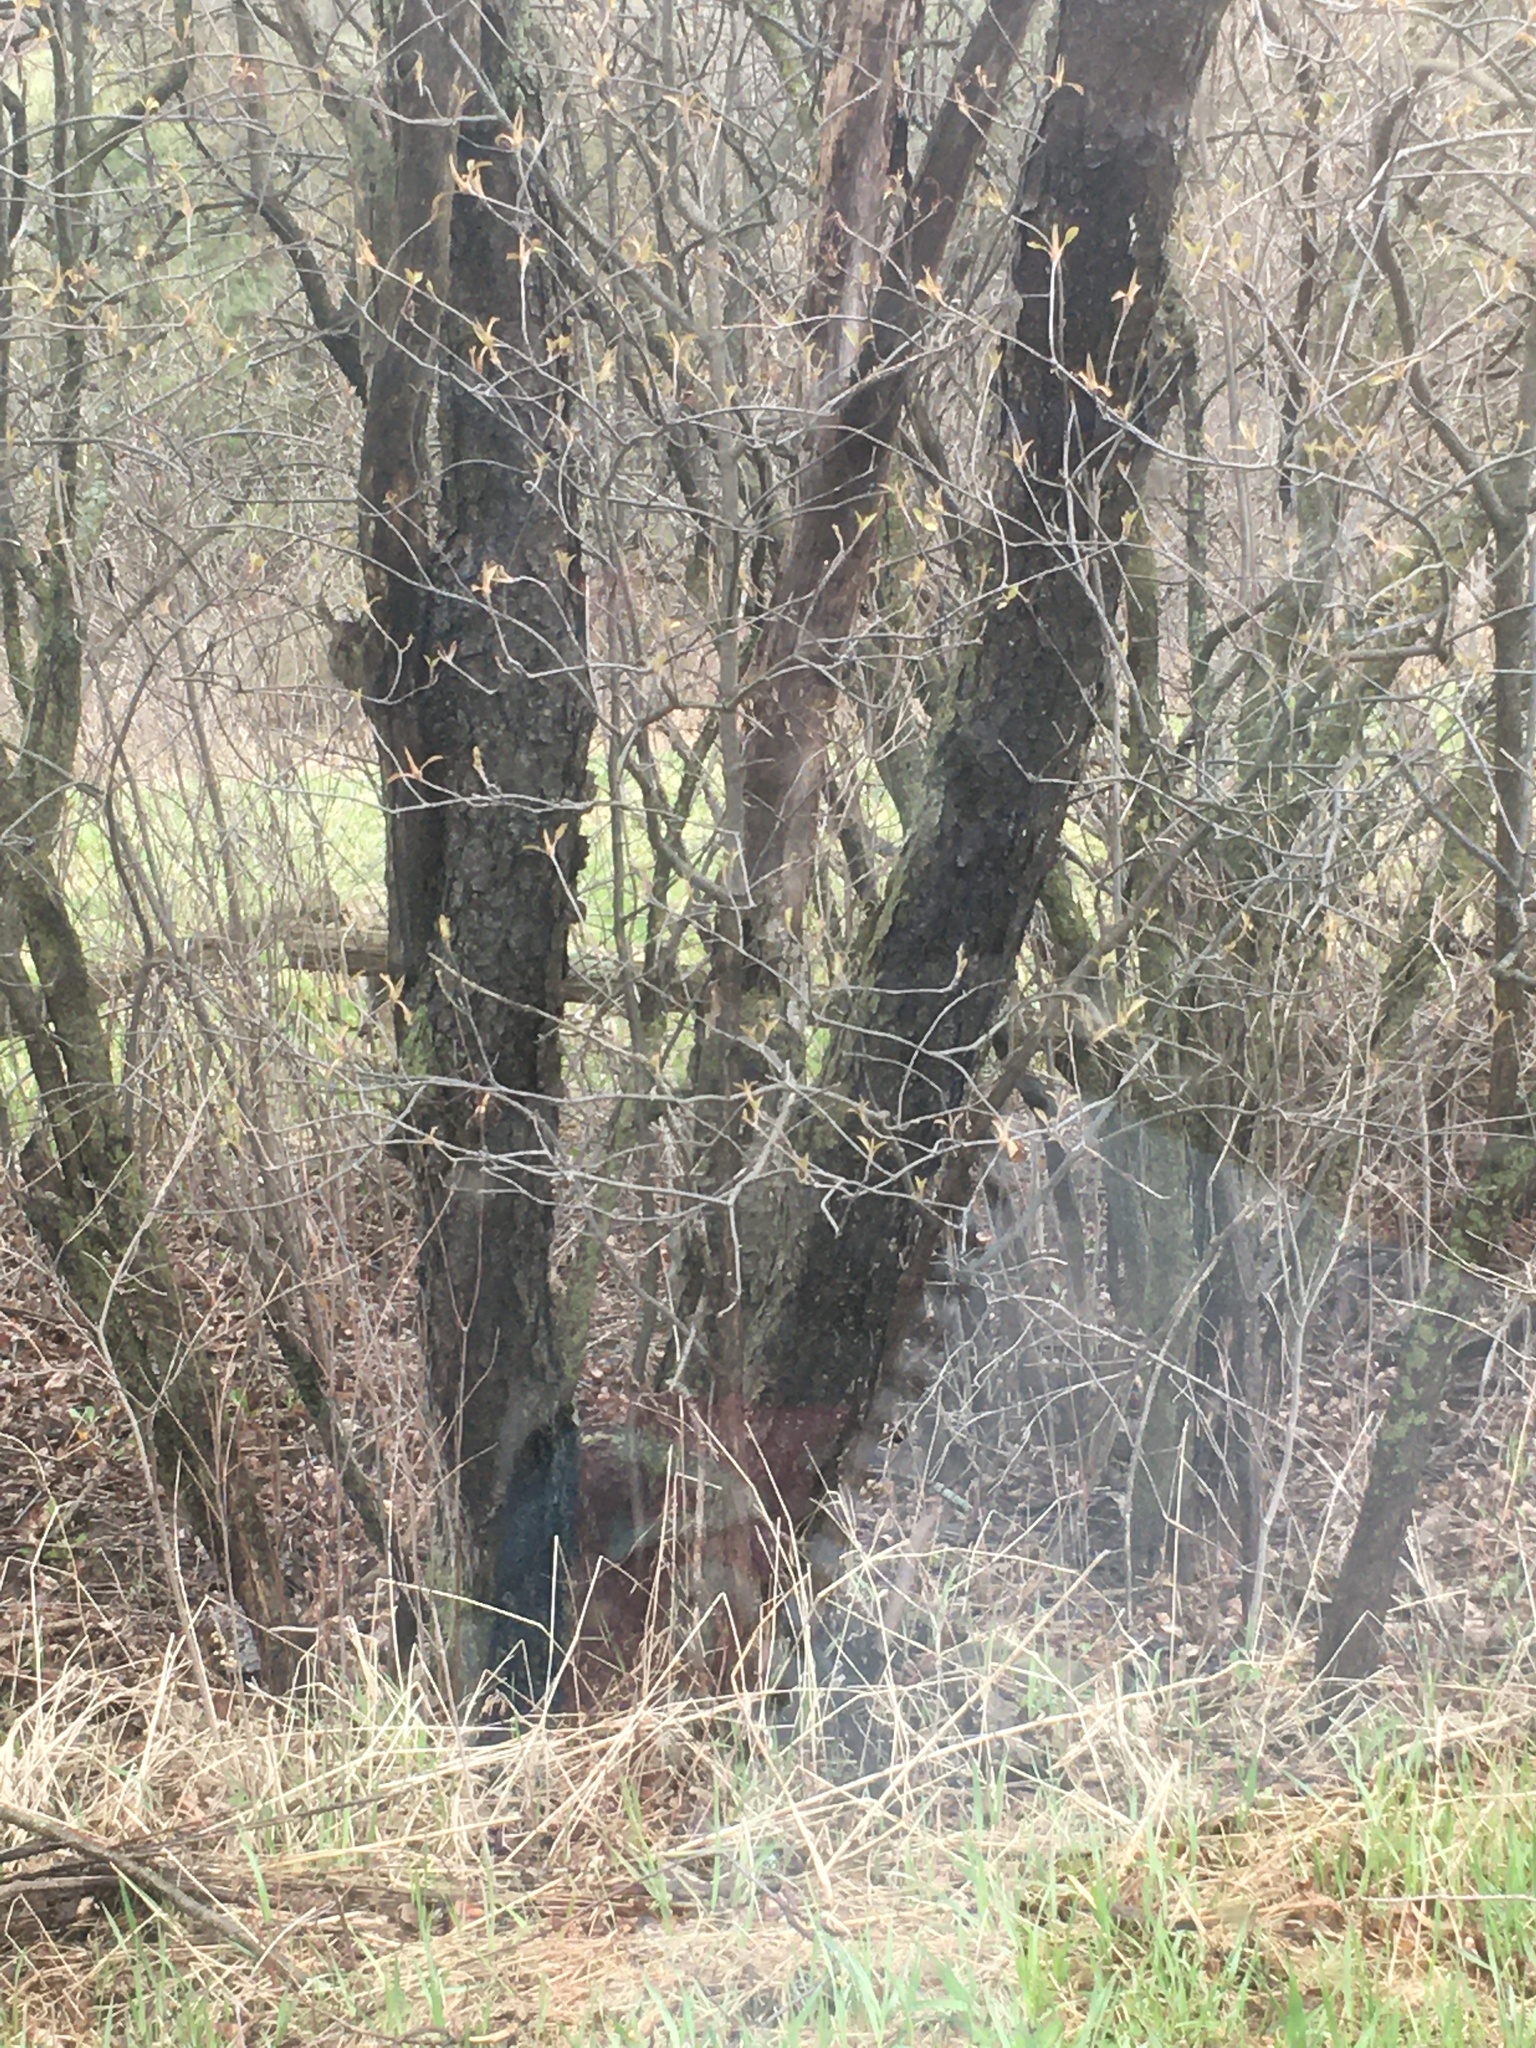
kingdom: Plantae
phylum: Tracheophyta
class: Magnoliopsida
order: Rosales
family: Rosaceae
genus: Prunus
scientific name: Prunus serotina
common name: Black cherry
